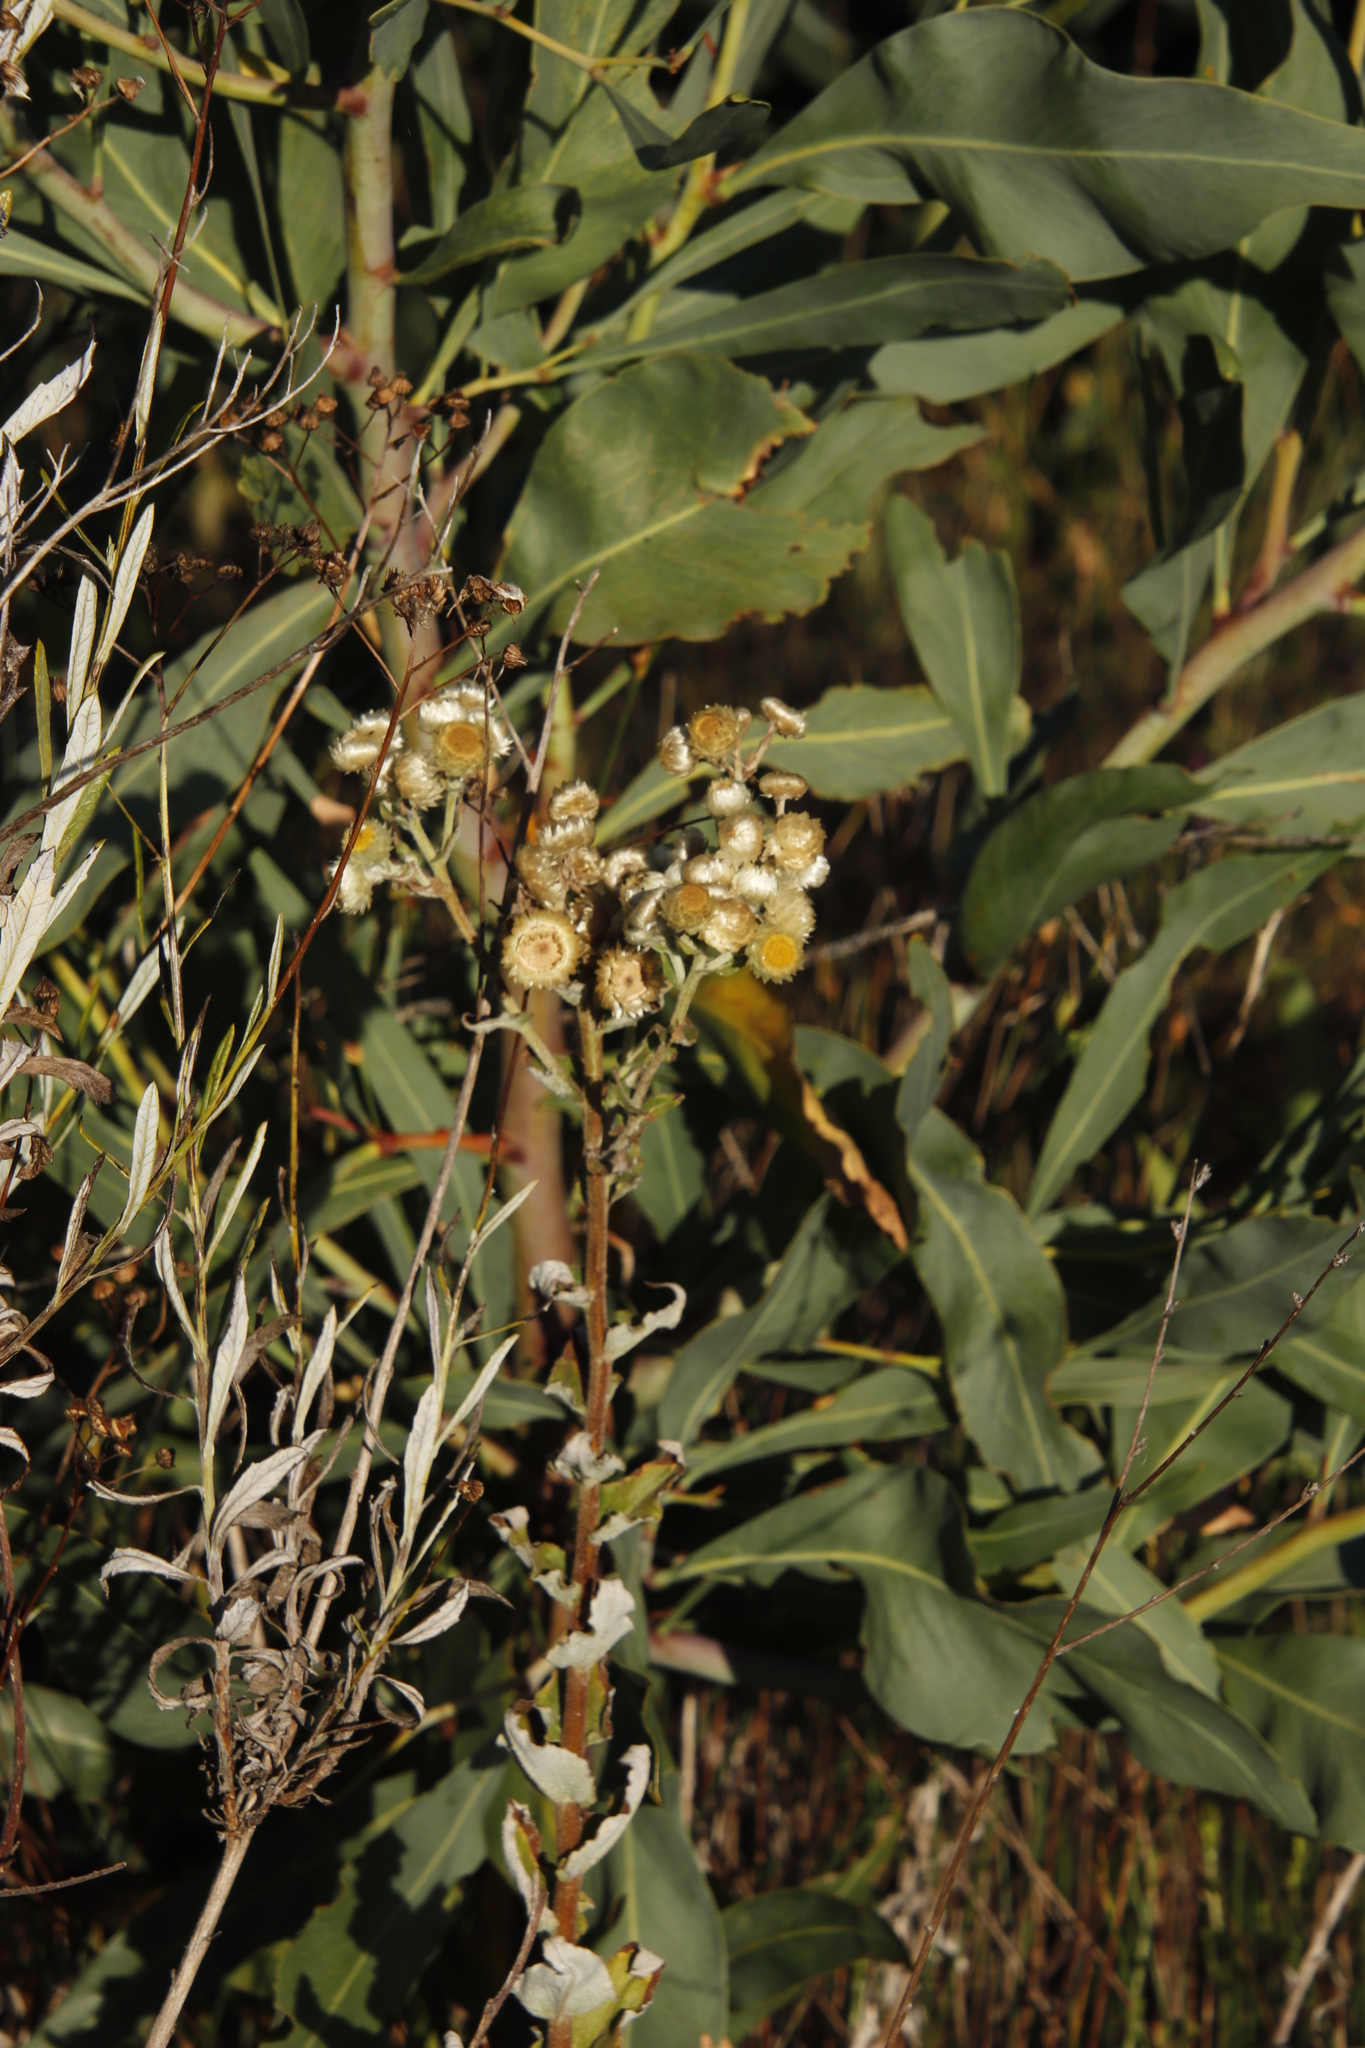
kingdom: Plantae
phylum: Tracheophyta
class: Magnoliopsida
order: Asterales
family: Asteraceae
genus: Helichrysum
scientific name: Helichrysum foetidum
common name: Stinking everlasting
